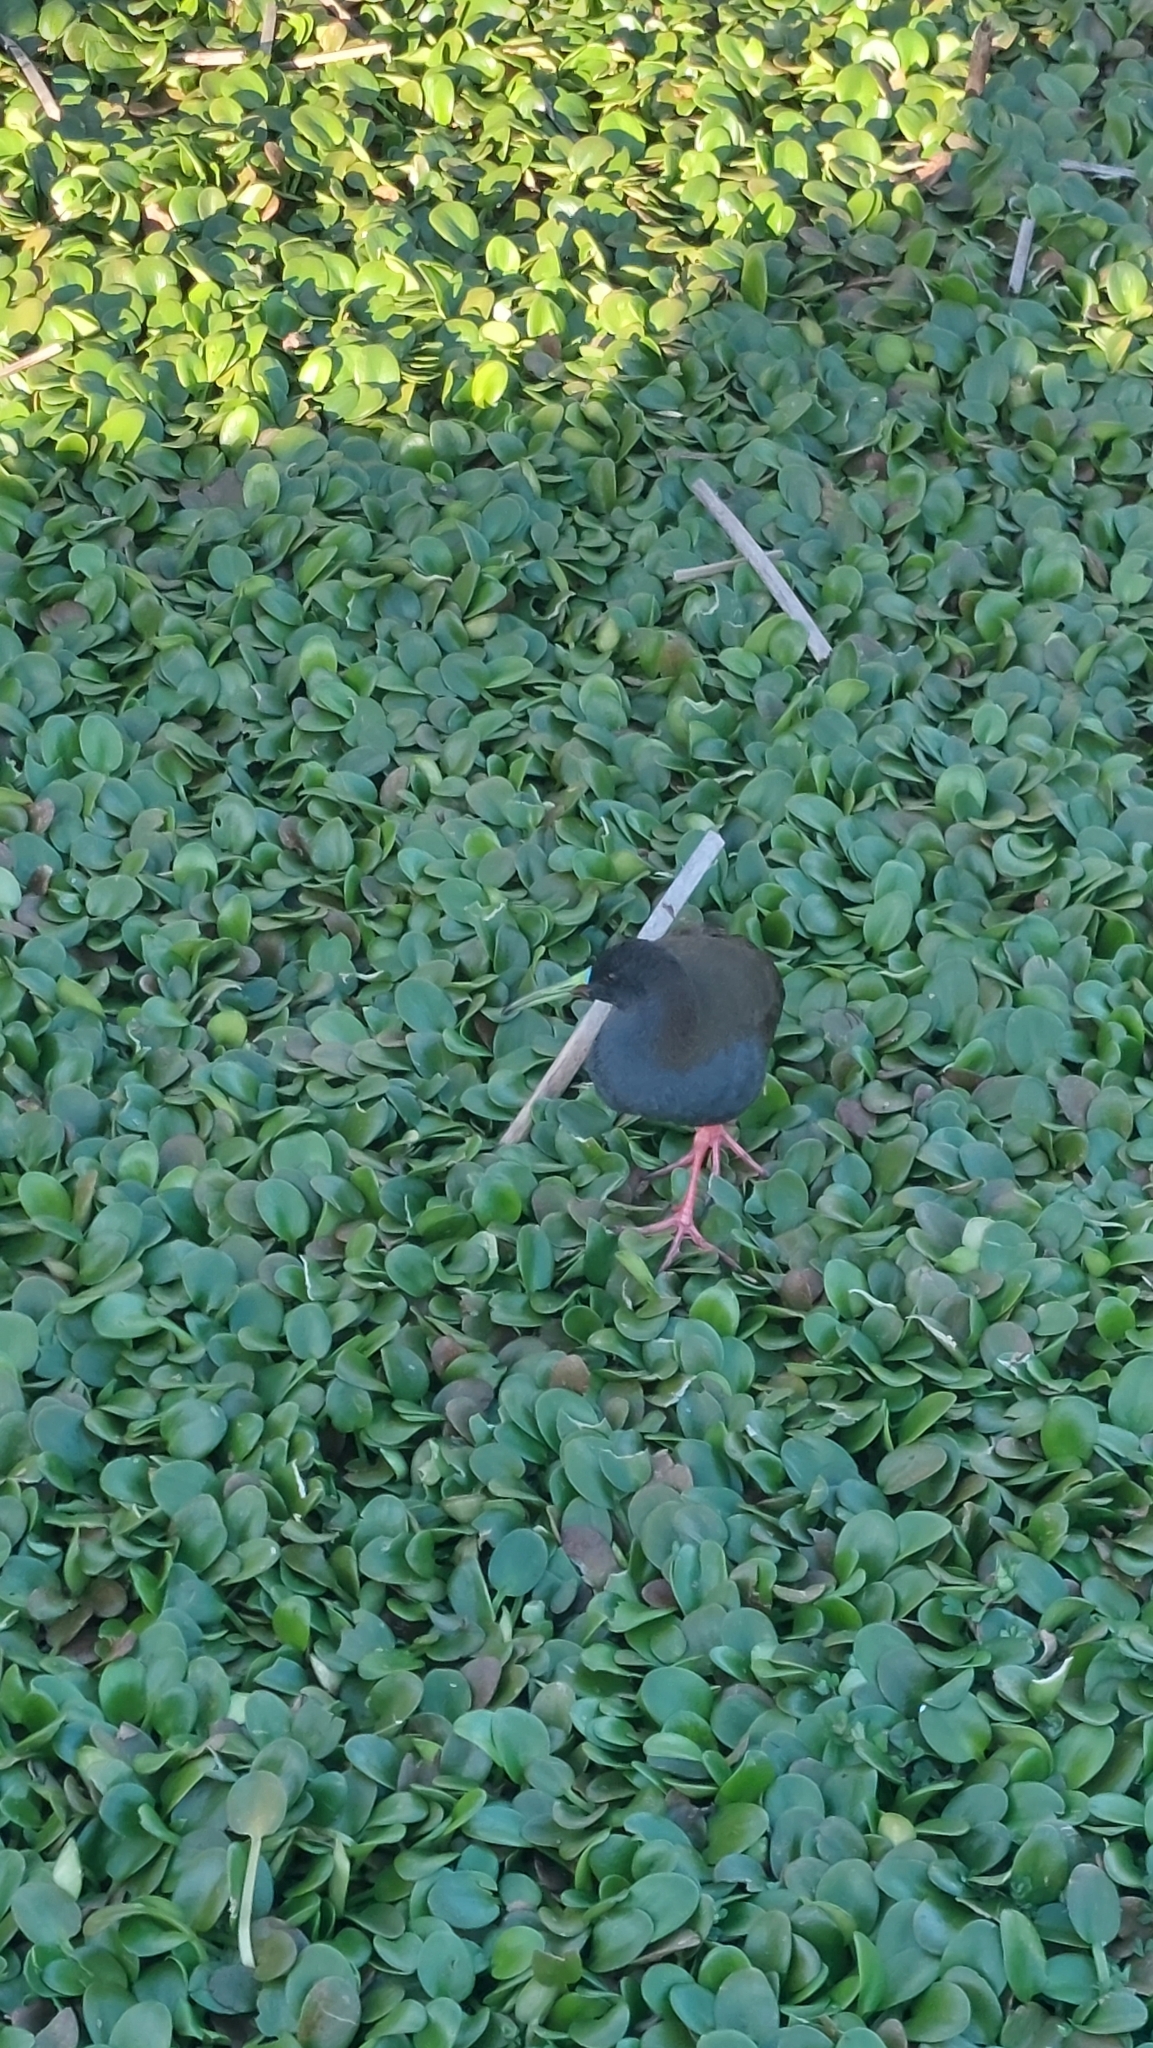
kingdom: Animalia
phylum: Chordata
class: Aves
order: Gruiformes
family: Rallidae
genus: Pardirallus
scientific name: Pardirallus sanguinolentus
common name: Plumbeous rail
